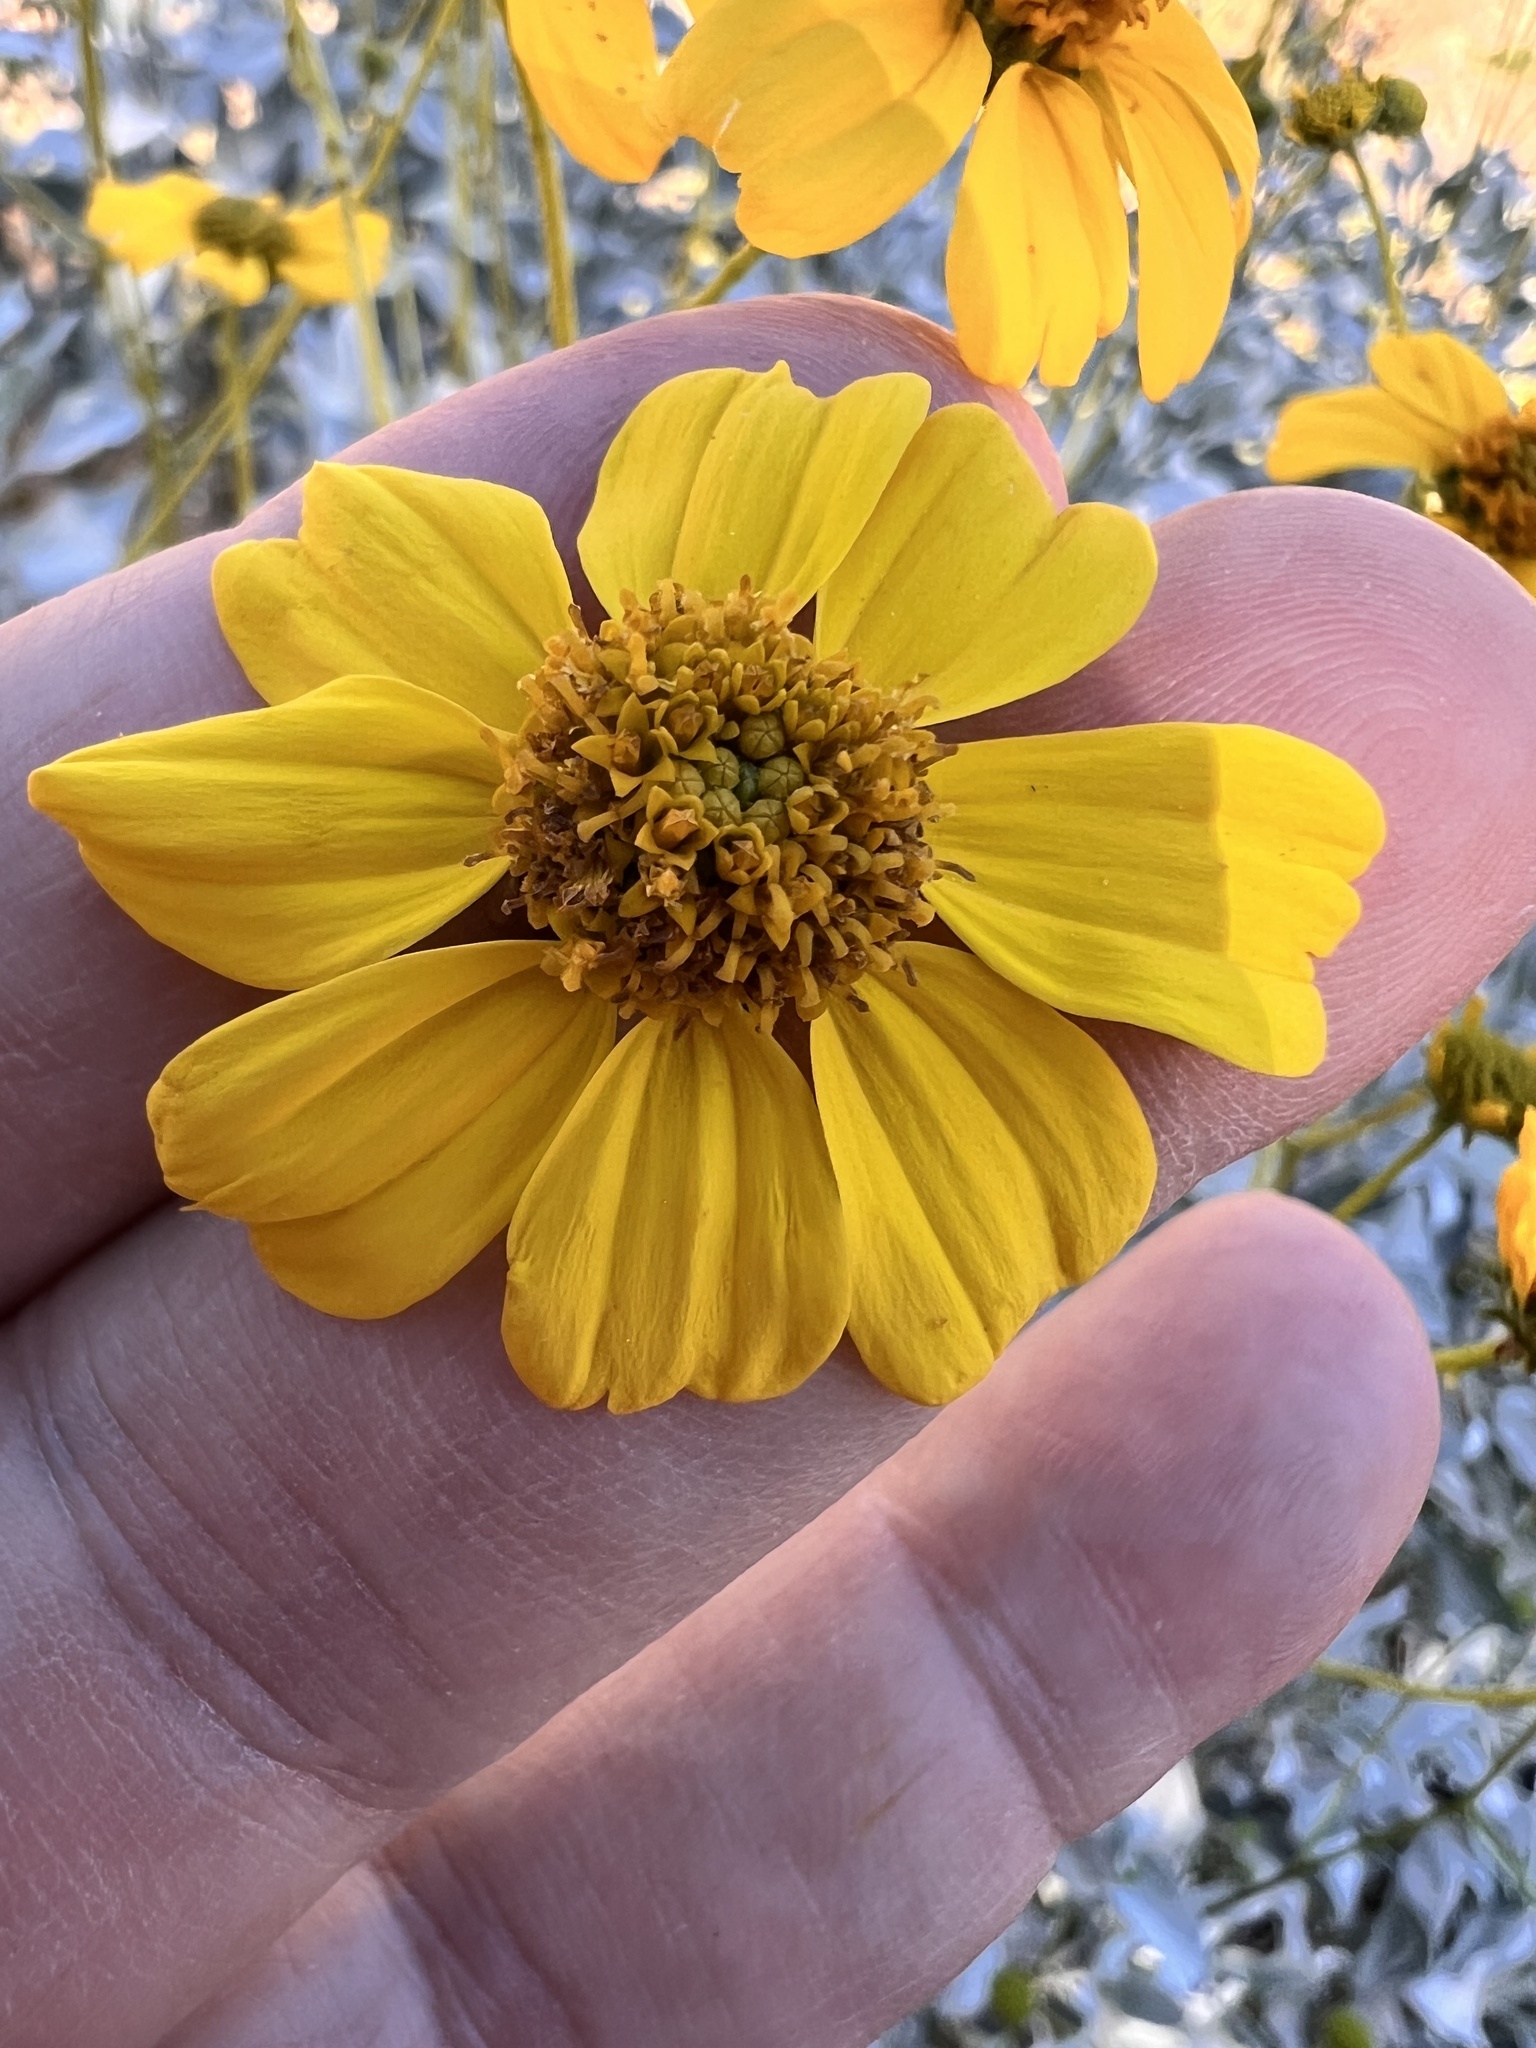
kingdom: Plantae
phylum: Tracheophyta
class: Magnoliopsida
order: Asterales
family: Asteraceae
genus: Encelia
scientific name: Encelia farinosa
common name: Brittlebush
